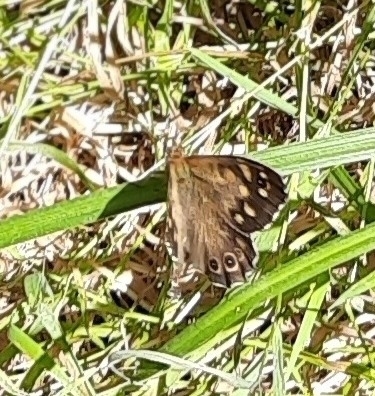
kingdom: Animalia
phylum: Arthropoda
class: Insecta
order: Lepidoptera
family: Nymphalidae
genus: Pararge
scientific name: Pararge aegeria
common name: Speckled wood
